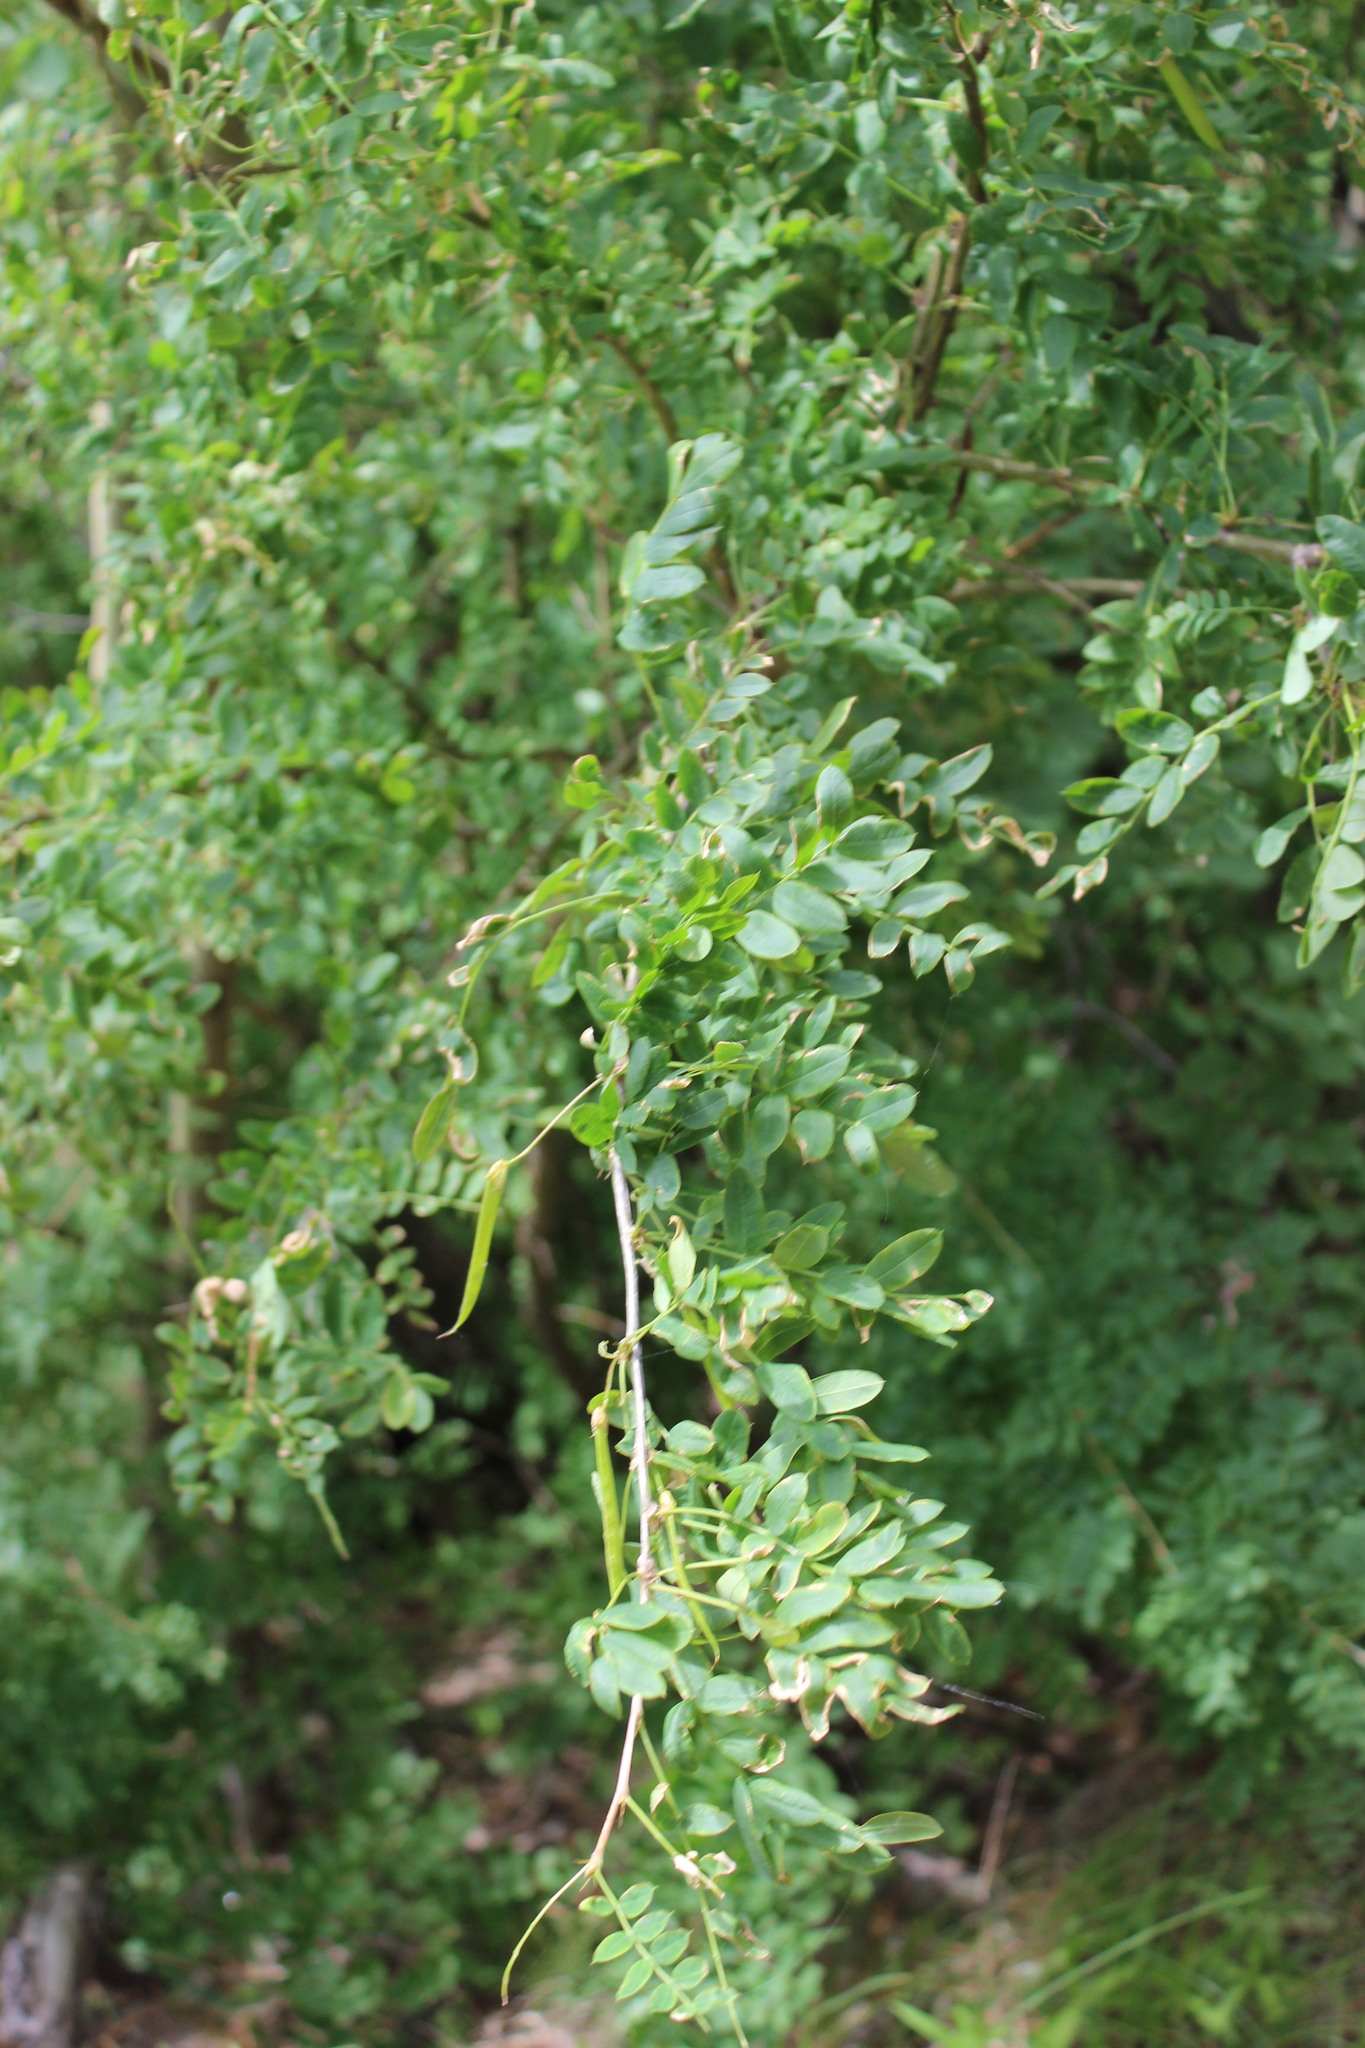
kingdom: Plantae
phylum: Tracheophyta
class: Magnoliopsida
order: Fabales
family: Fabaceae
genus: Caragana
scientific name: Caragana arborescens
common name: Siberian peashrub
